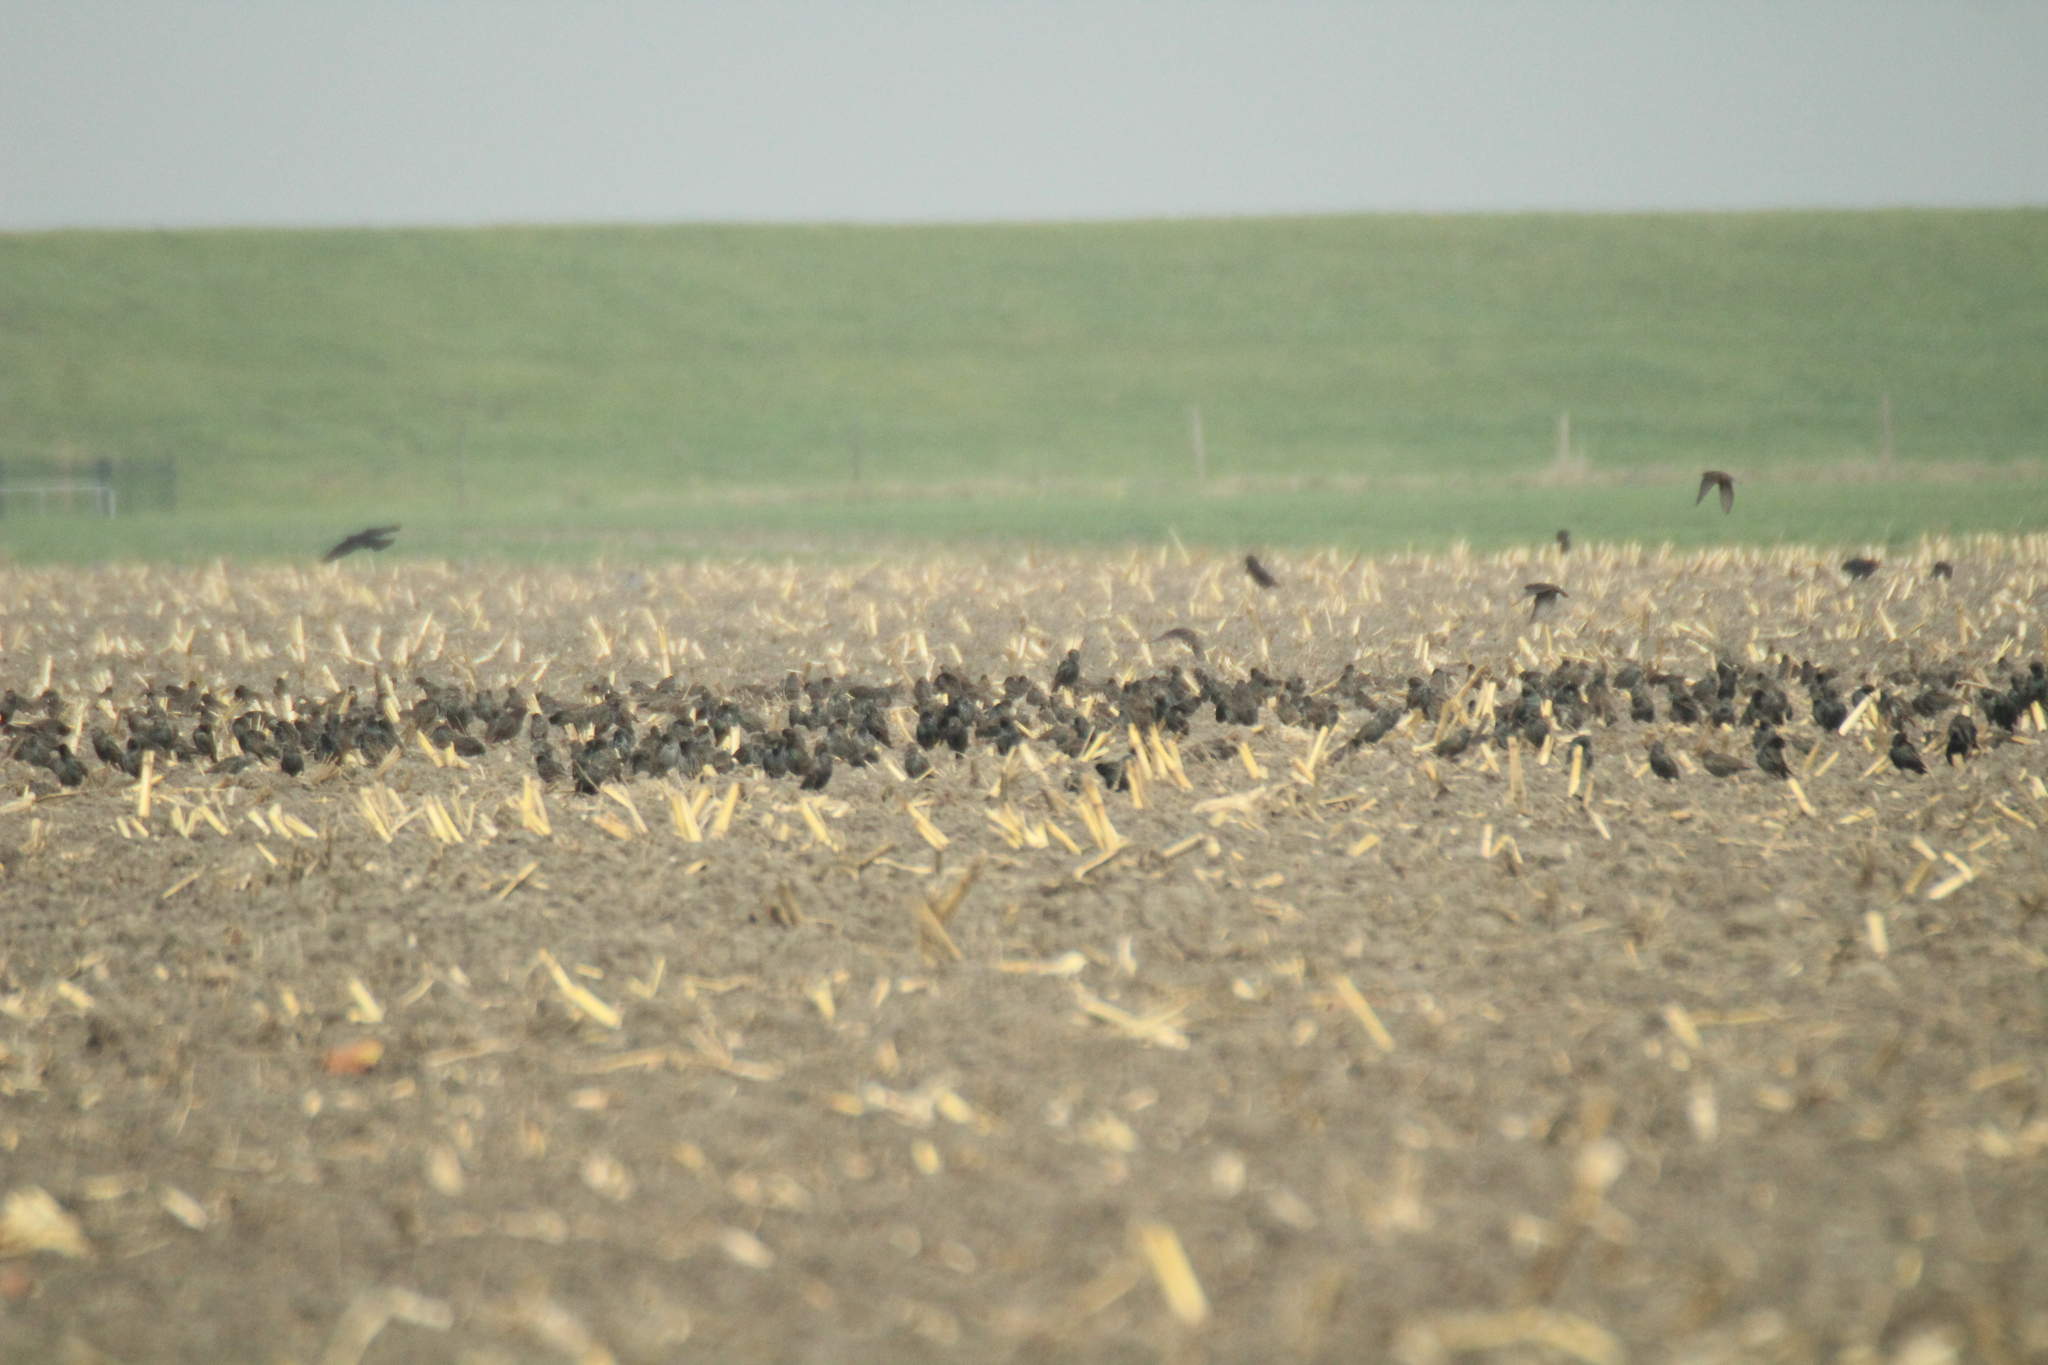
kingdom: Animalia
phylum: Chordata
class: Aves
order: Passeriformes
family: Sturnidae
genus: Sturnus
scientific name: Sturnus vulgaris
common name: Common starling
